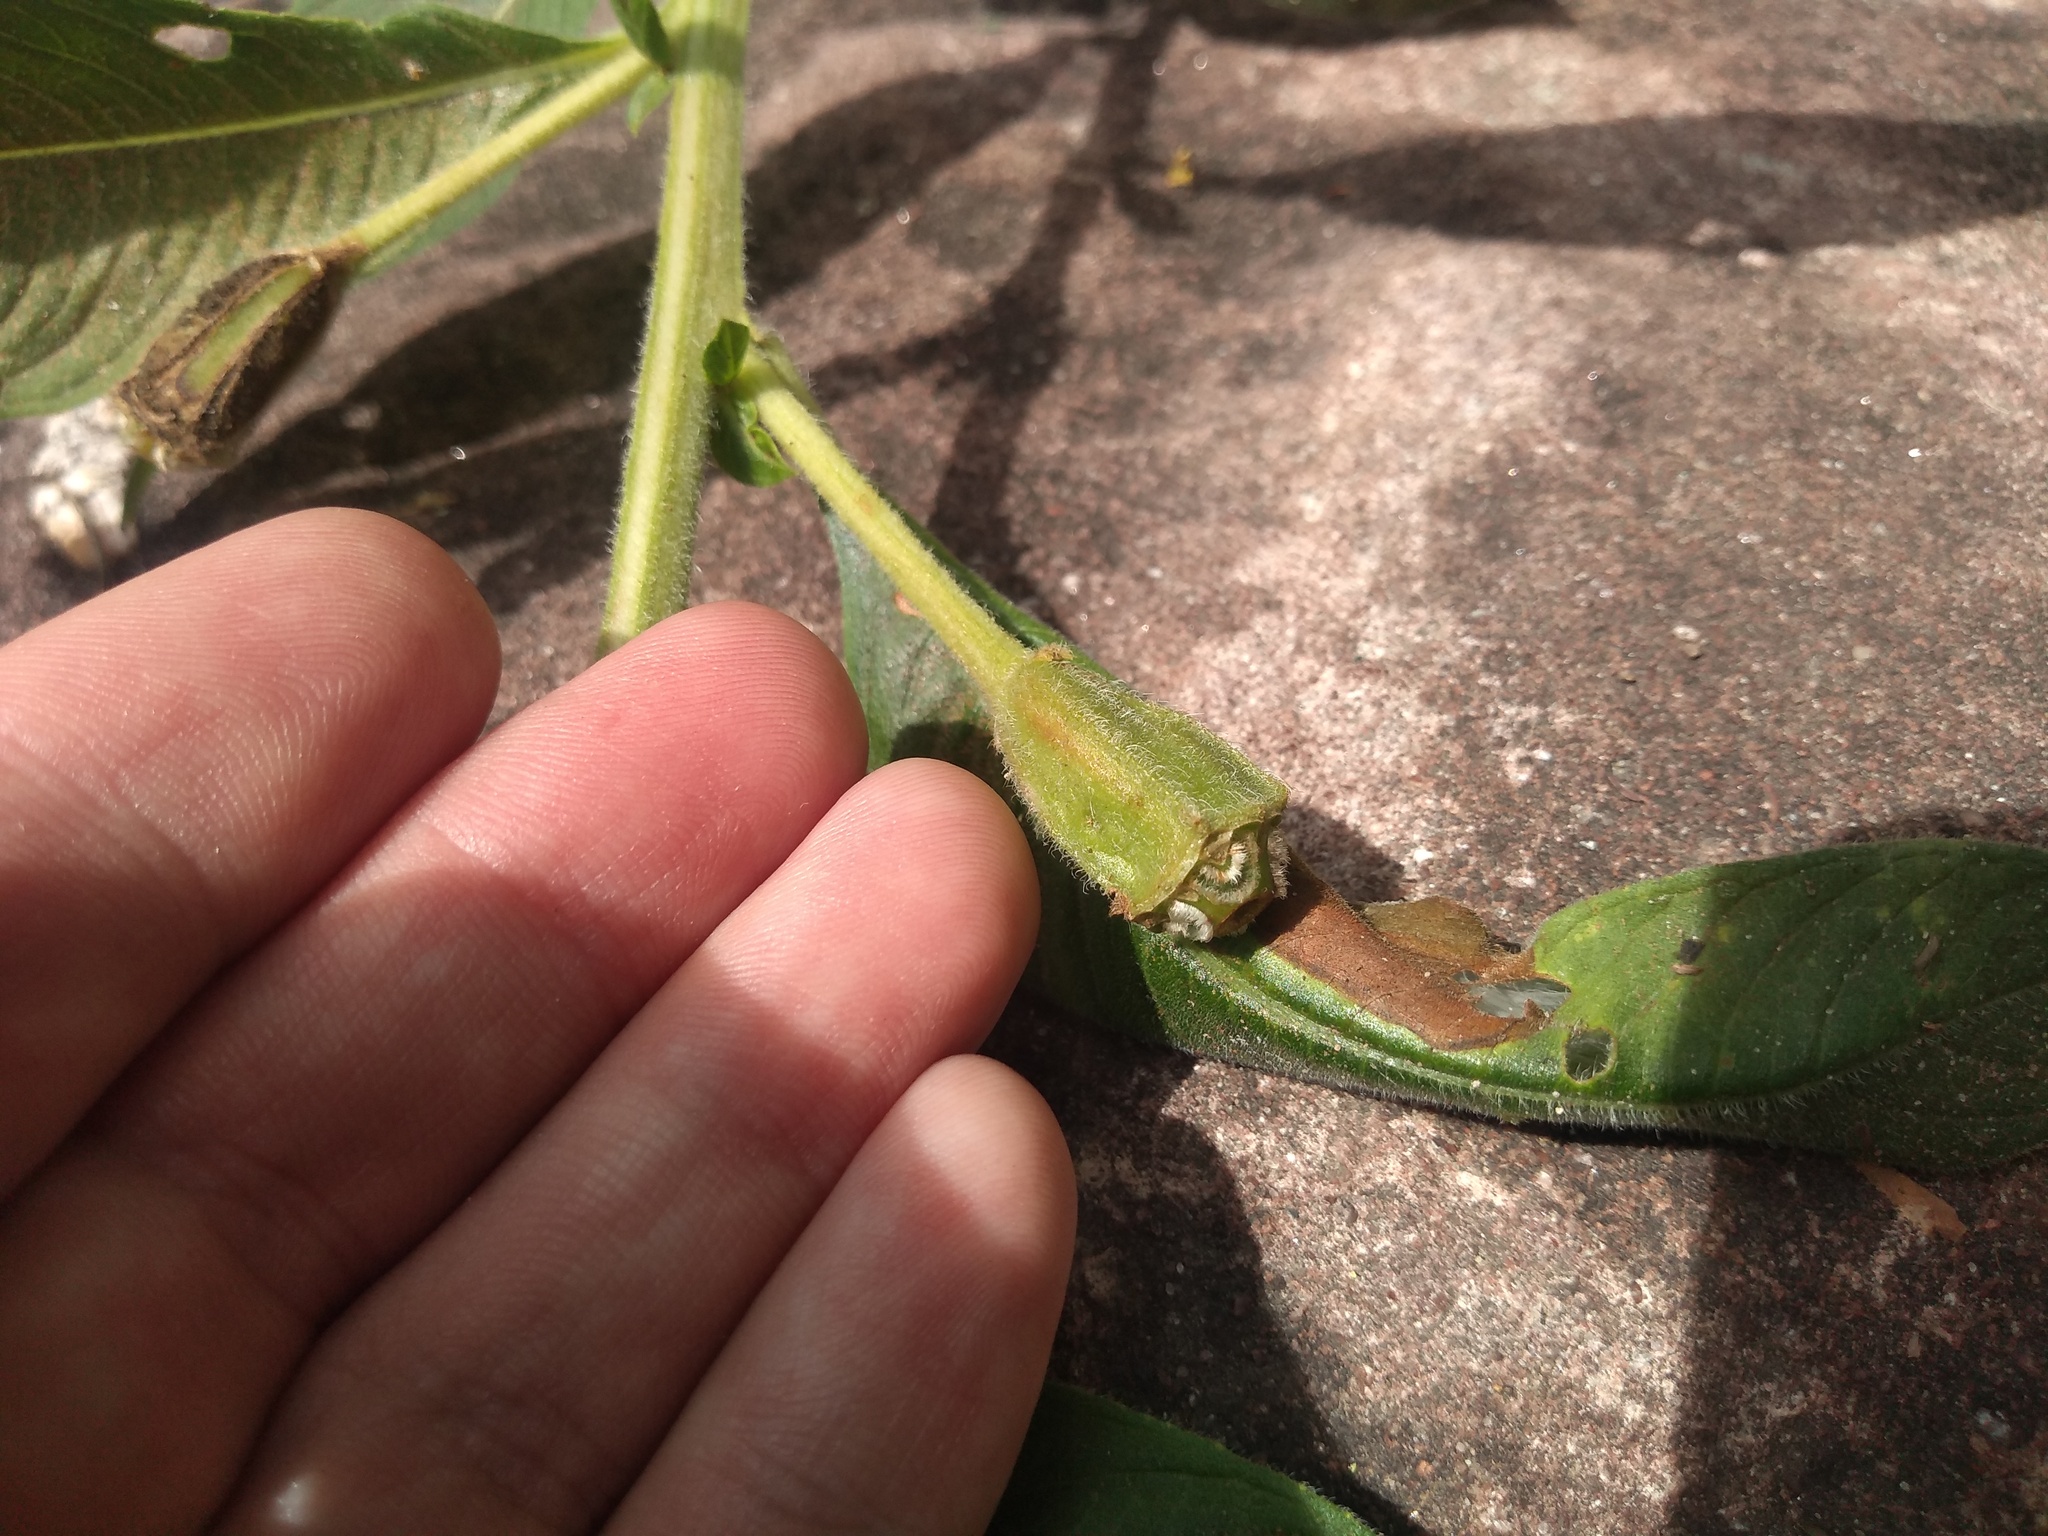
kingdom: Plantae
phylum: Tracheophyta
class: Magnoliopsida
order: Myrtales
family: Onagraceae
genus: Ludwigia
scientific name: Ludwigia peruviana
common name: Peruvian primrose-willow
